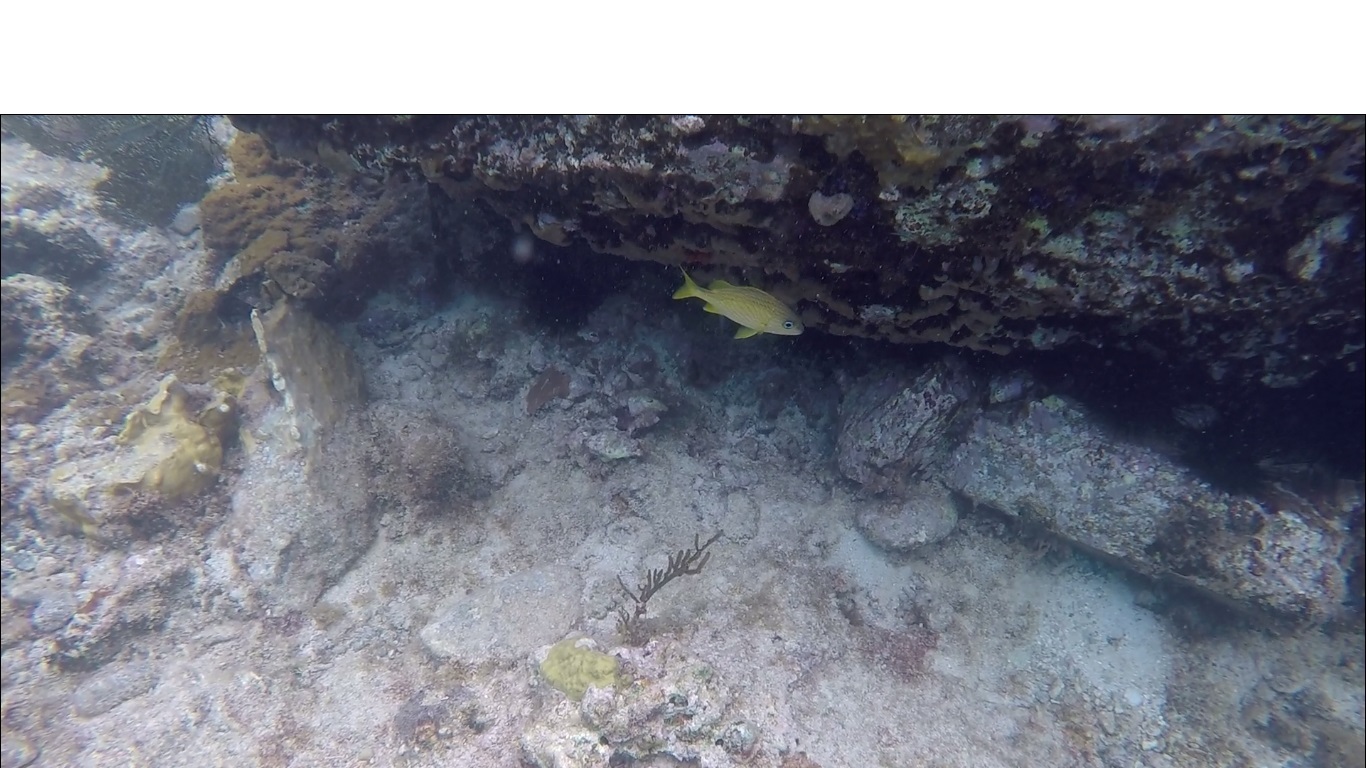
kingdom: Animalia
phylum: Chordata
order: Perciformes
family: Haemulidae
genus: Haemulon
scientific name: Haemulon flavolineatum
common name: French grunt
